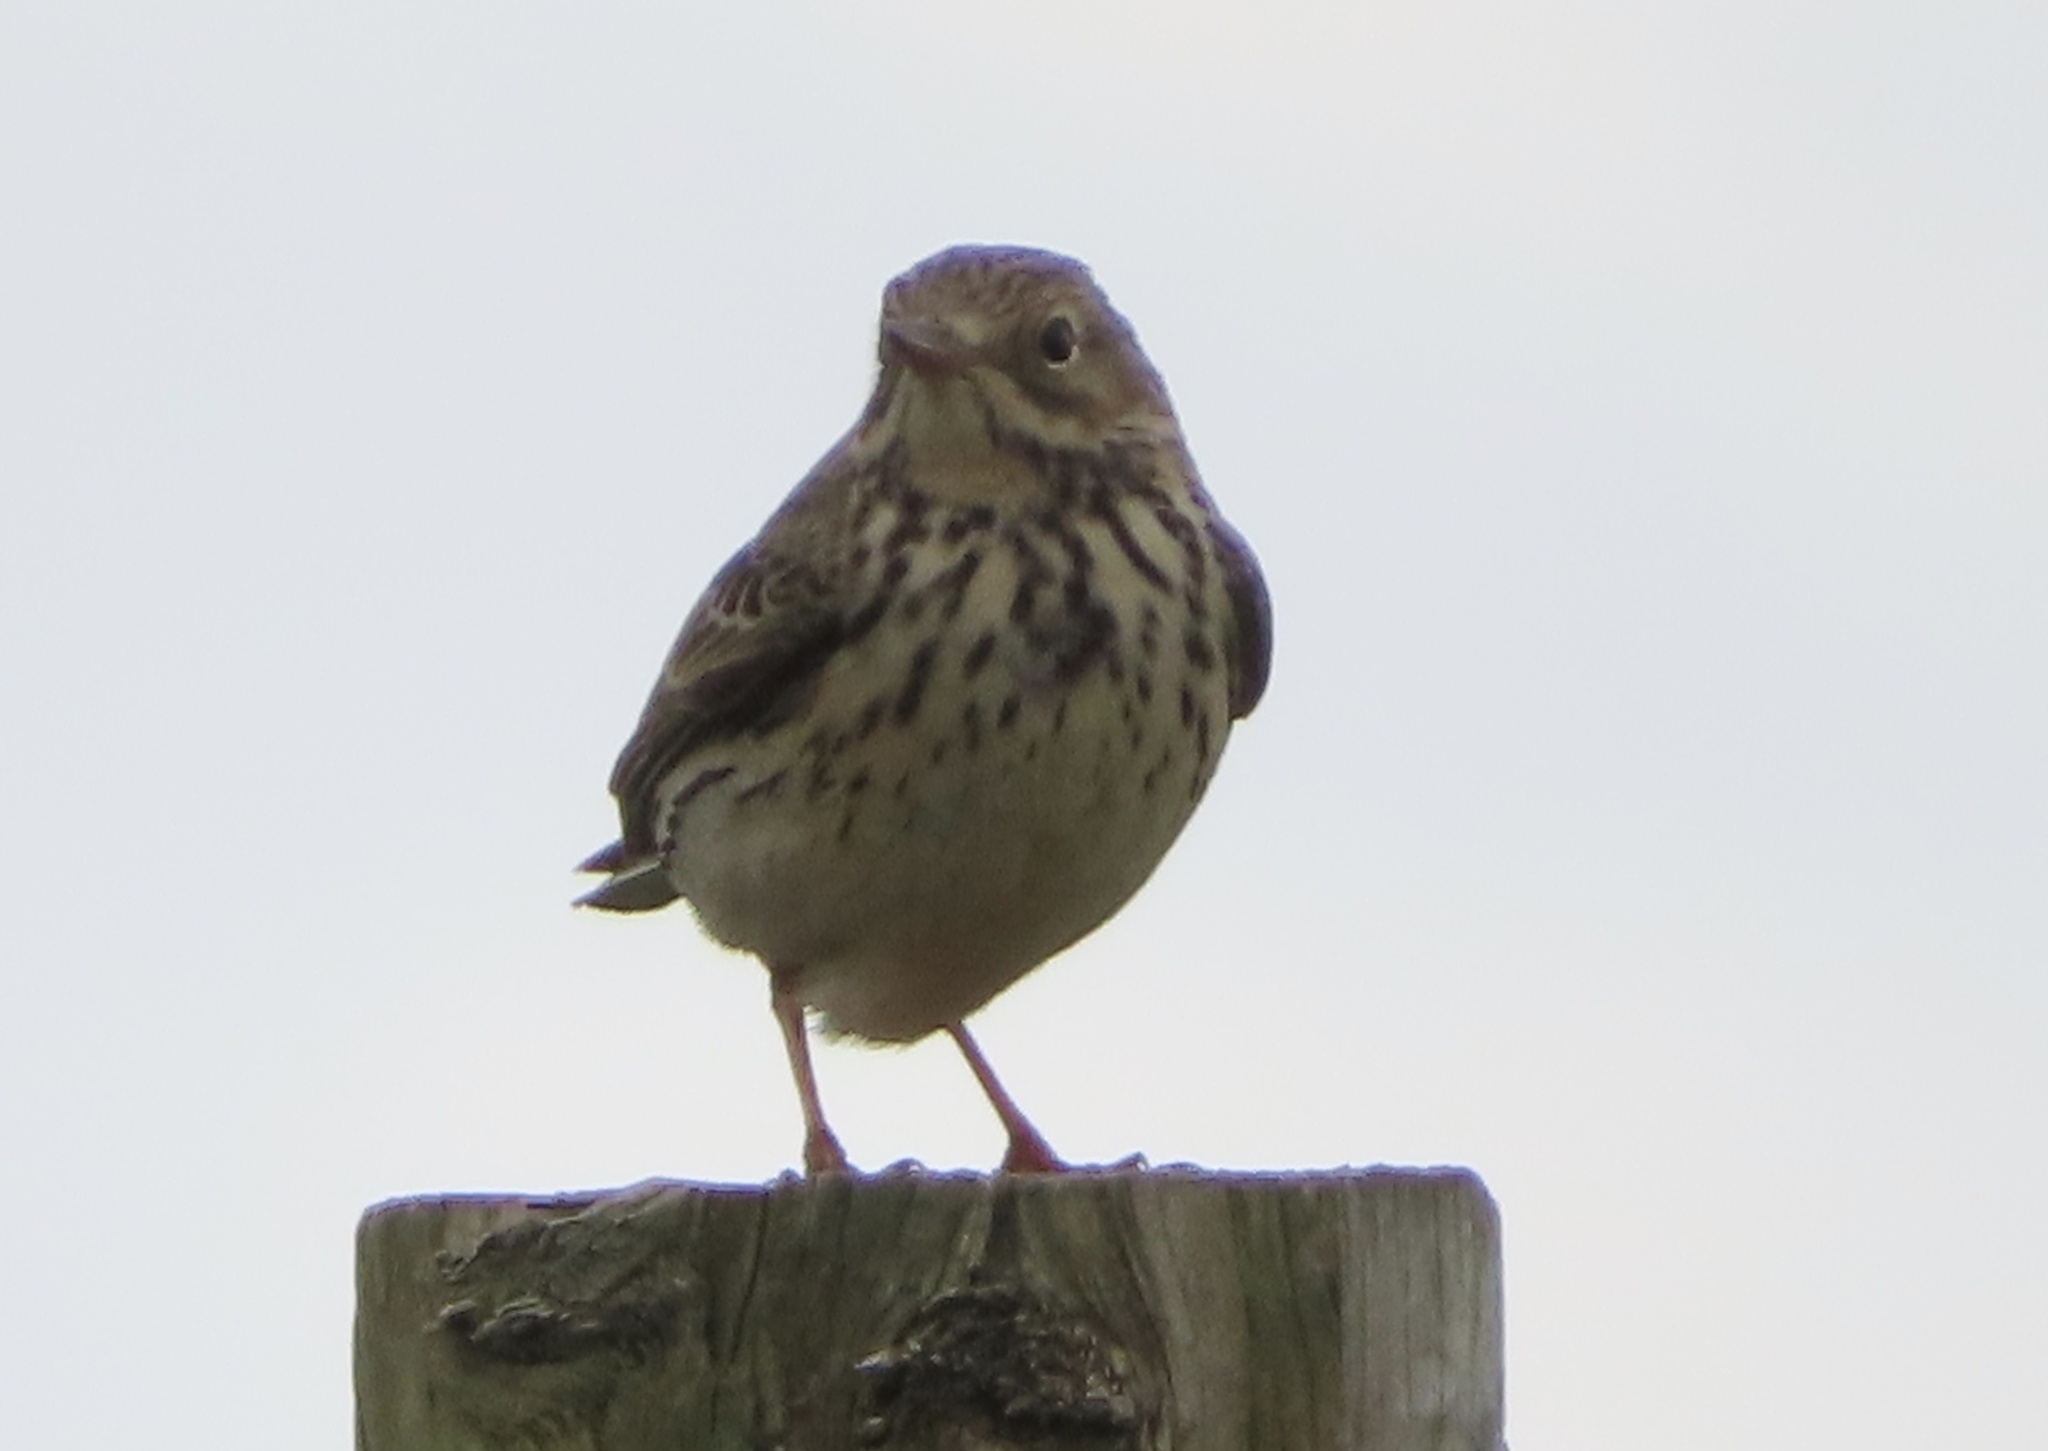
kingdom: Animalia
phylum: Chordata
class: Aves
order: Passeriformes
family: Motacillidae
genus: Anthus
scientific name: Anthus pratensis
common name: Meadow pipit
